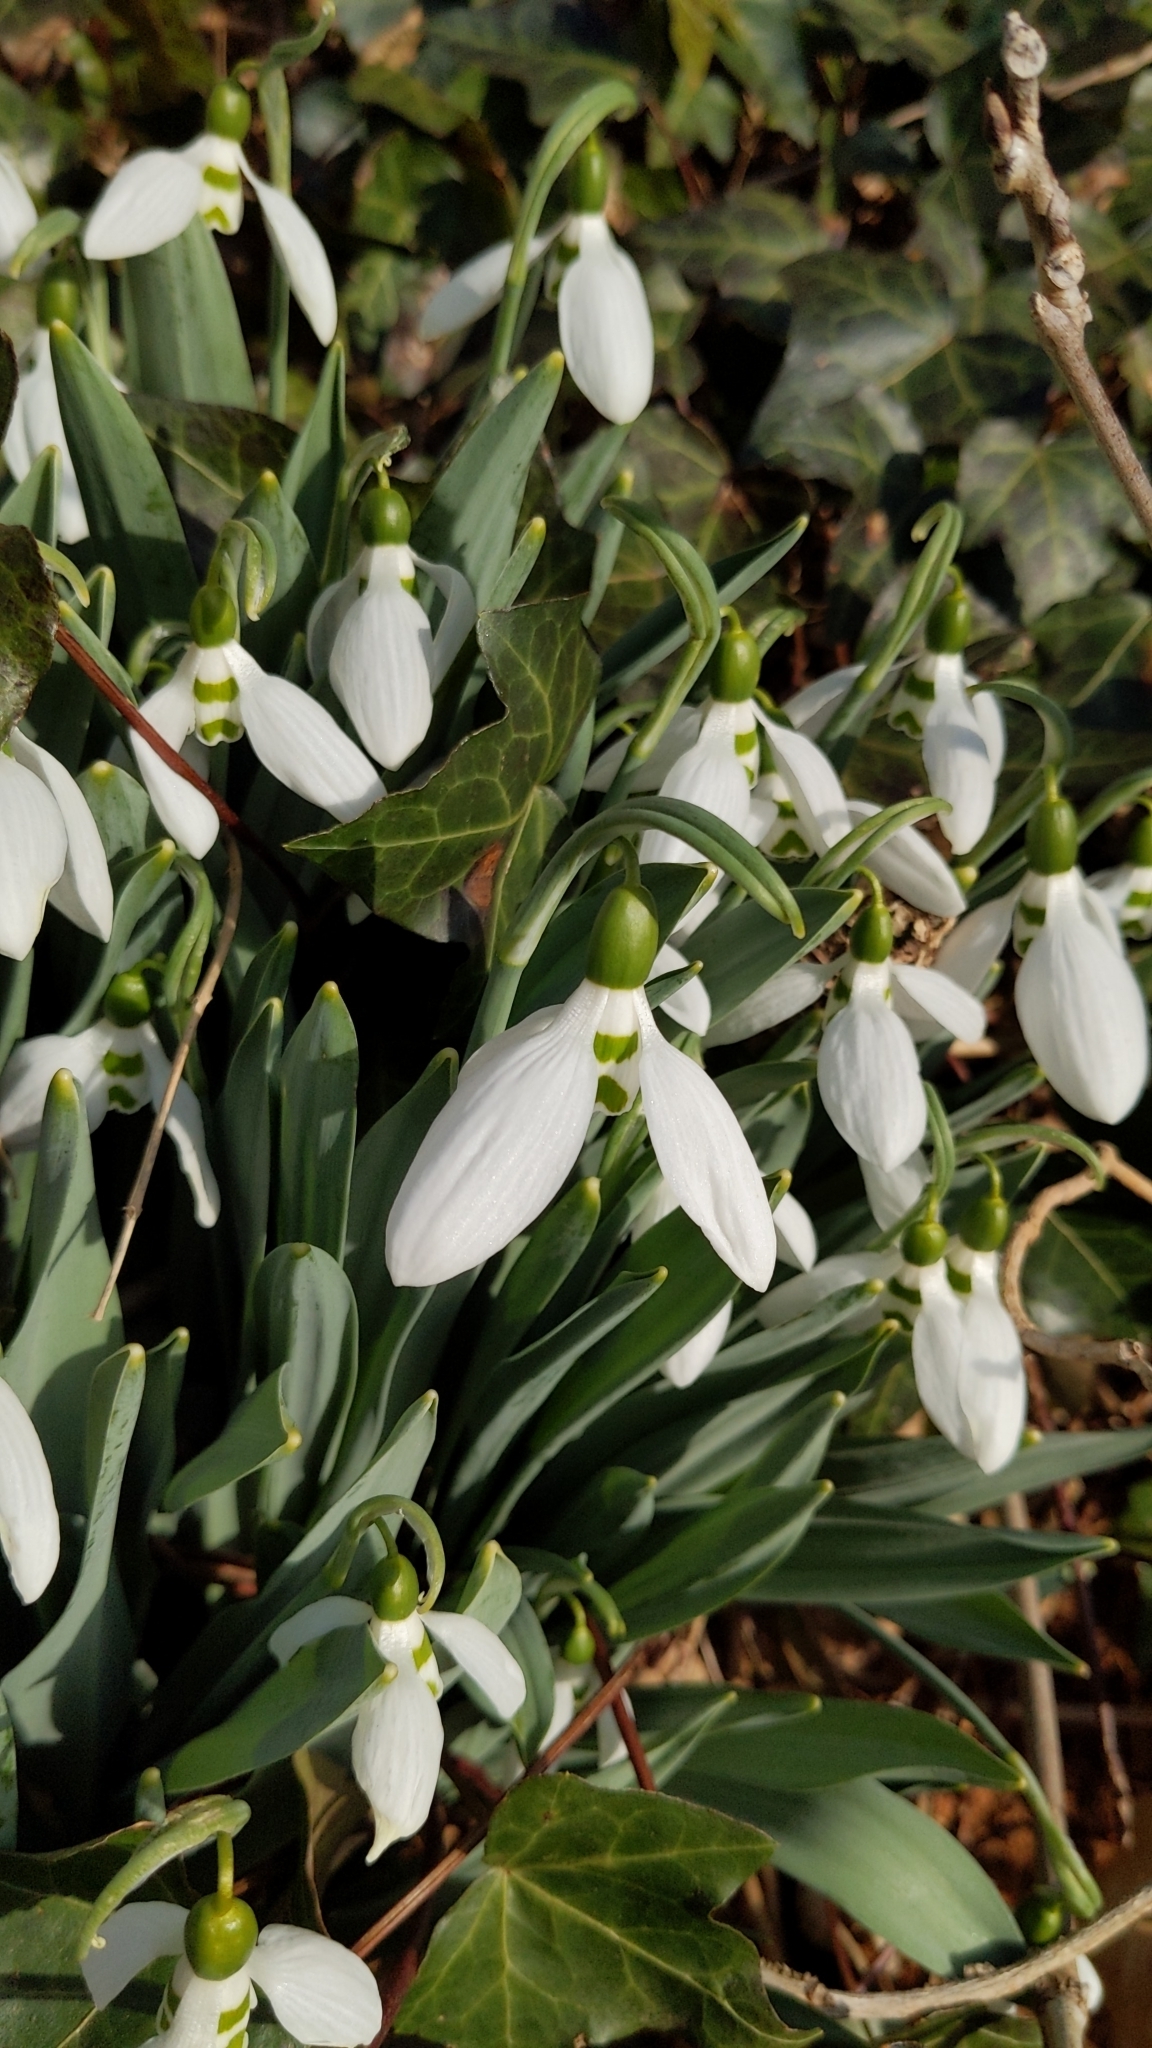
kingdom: Plantae
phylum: Tracheophyta
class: Liliopsida
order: Asparagales
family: Amaryllidaceae
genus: Galanthus
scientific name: Galanthus elwesii
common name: Greater snowdrop
